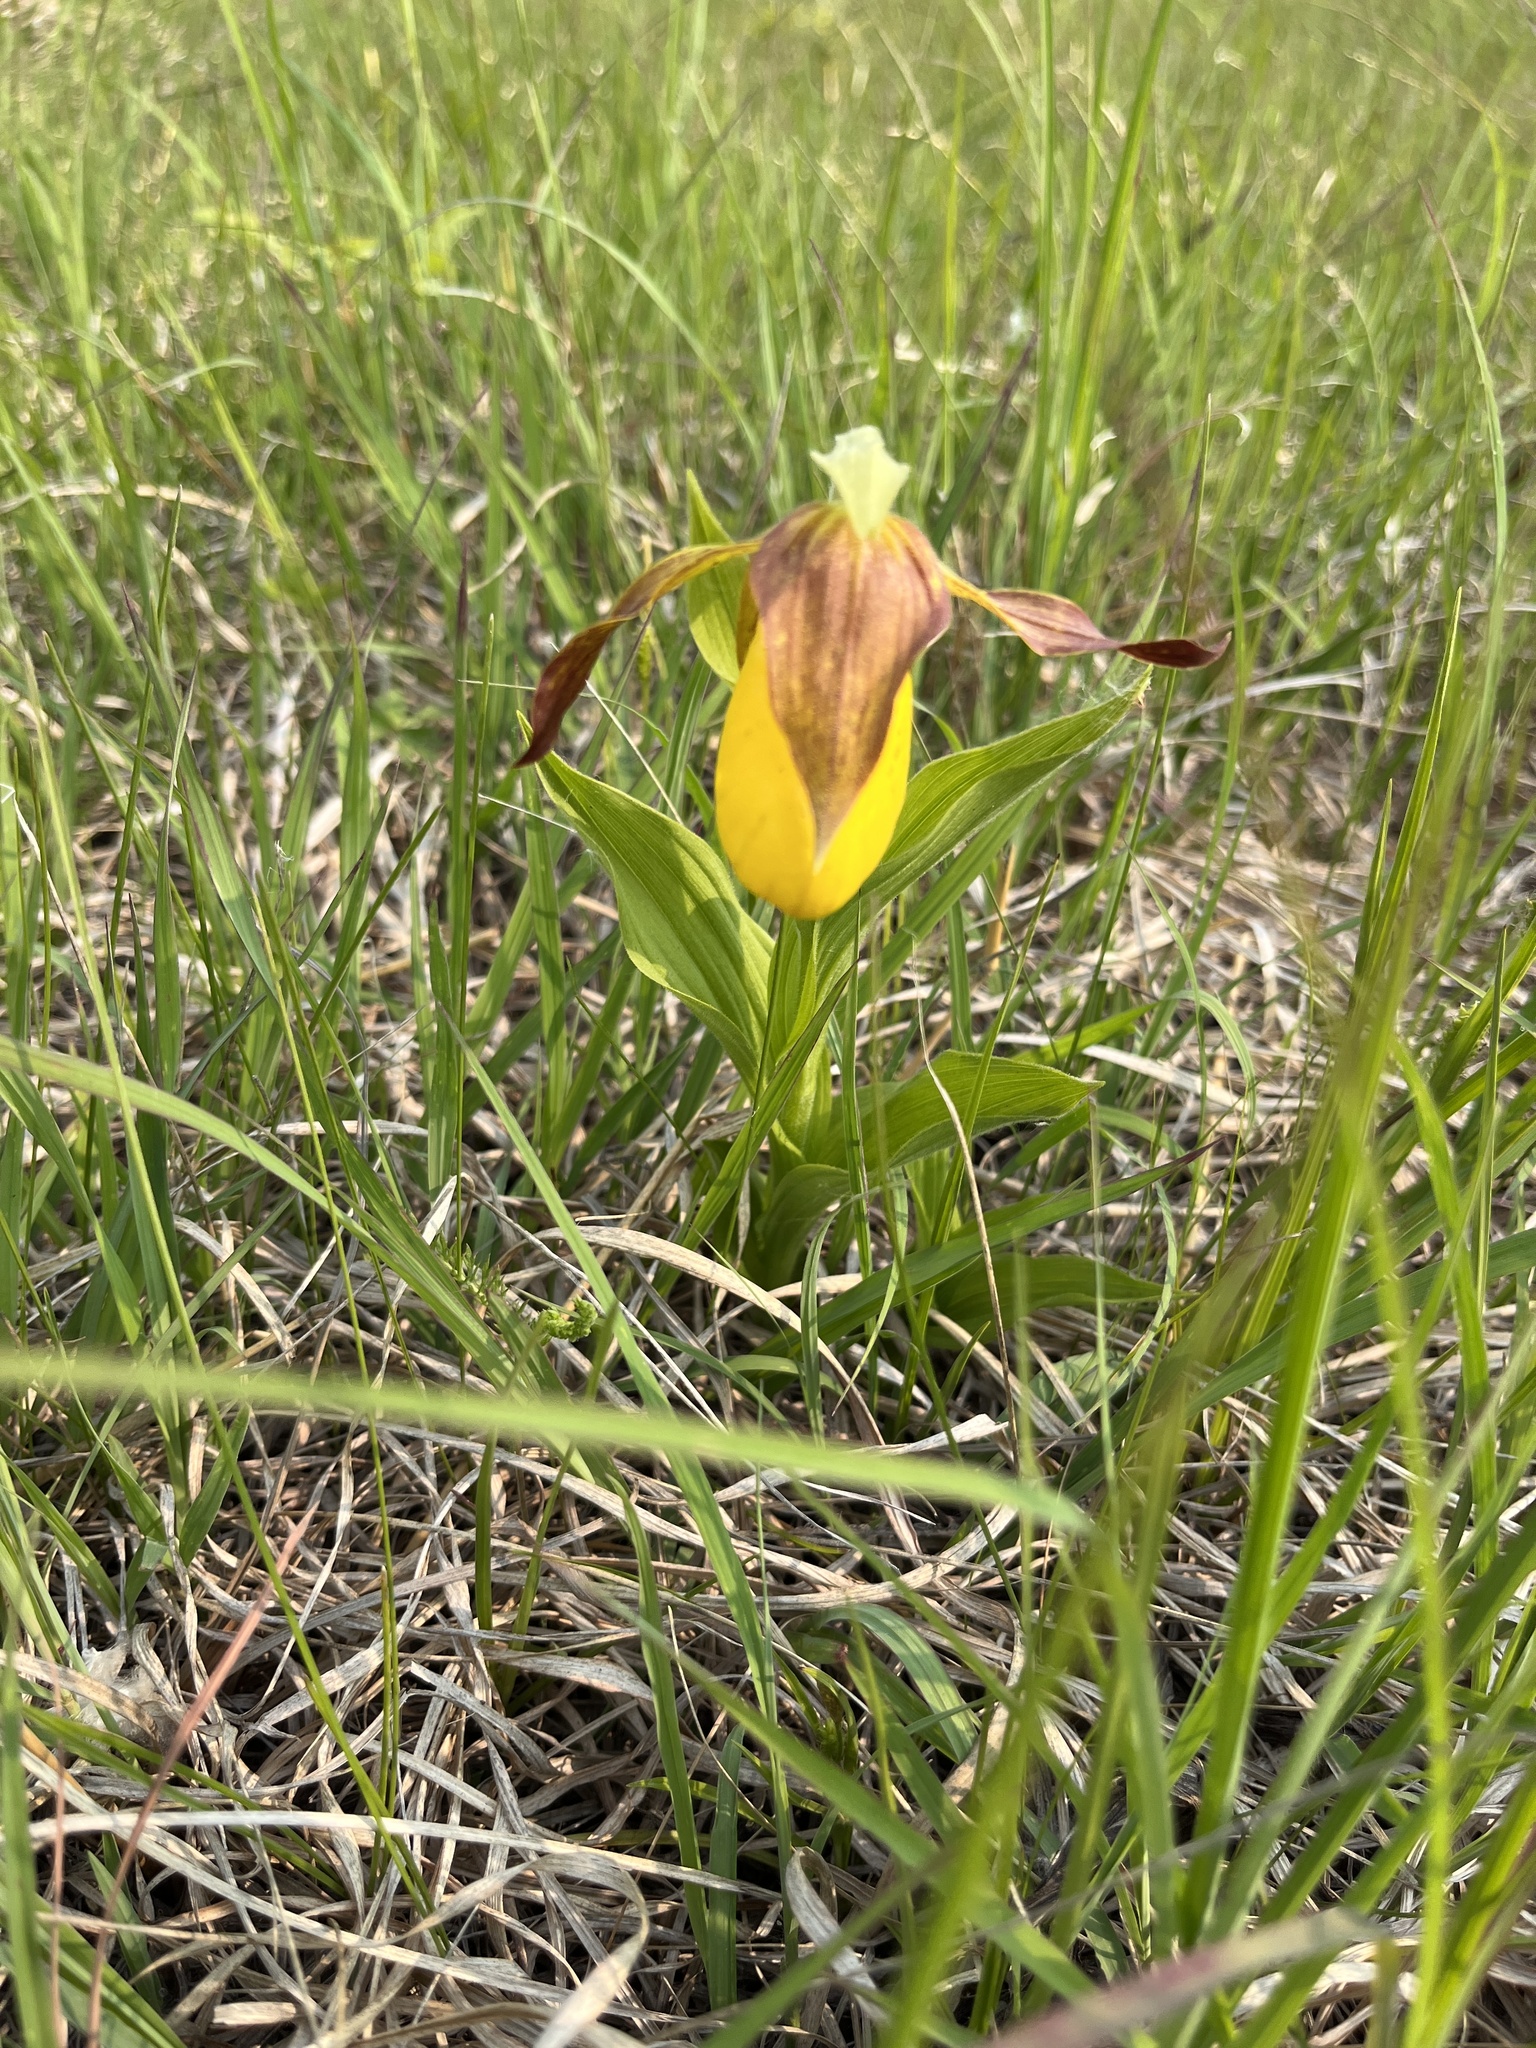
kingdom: Plantae
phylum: Tracheophyta
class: Liliopsida
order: Asparagales
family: Orchidaceae
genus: Cypripedium
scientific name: Cypripedium parviflorum
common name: American yellow lady's-slipper
